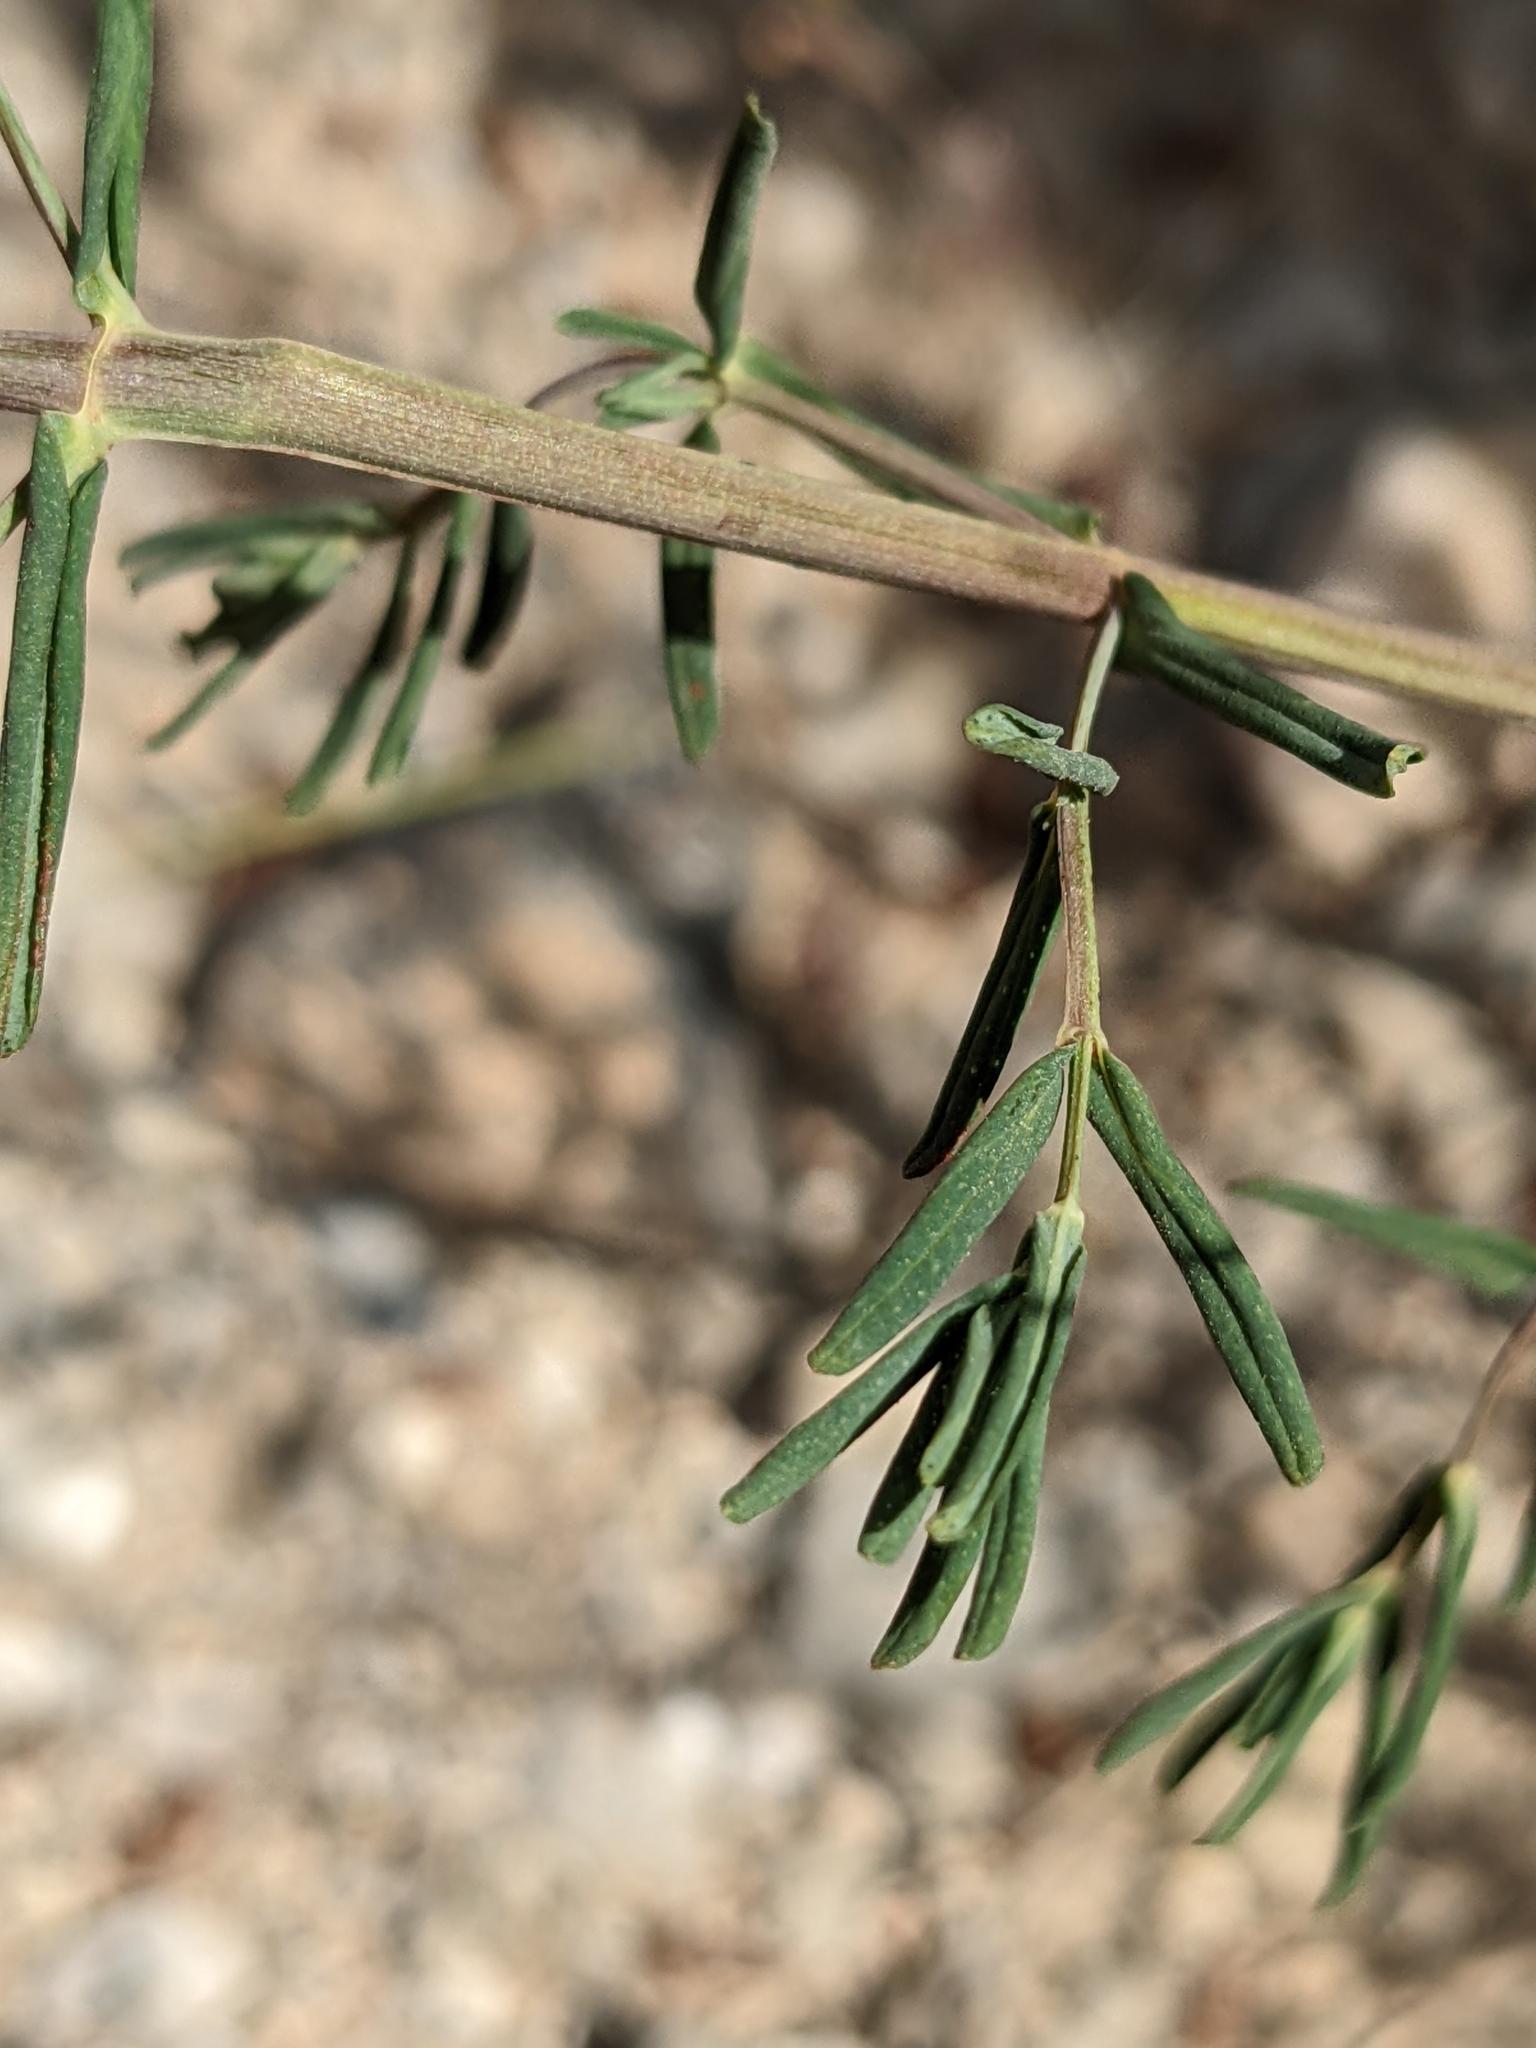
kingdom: Plantae
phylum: Tracheophyta
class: Magnoliopsida
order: Malpighiales
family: Hypericaceae
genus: Hypericum
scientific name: Hypericum veronense
